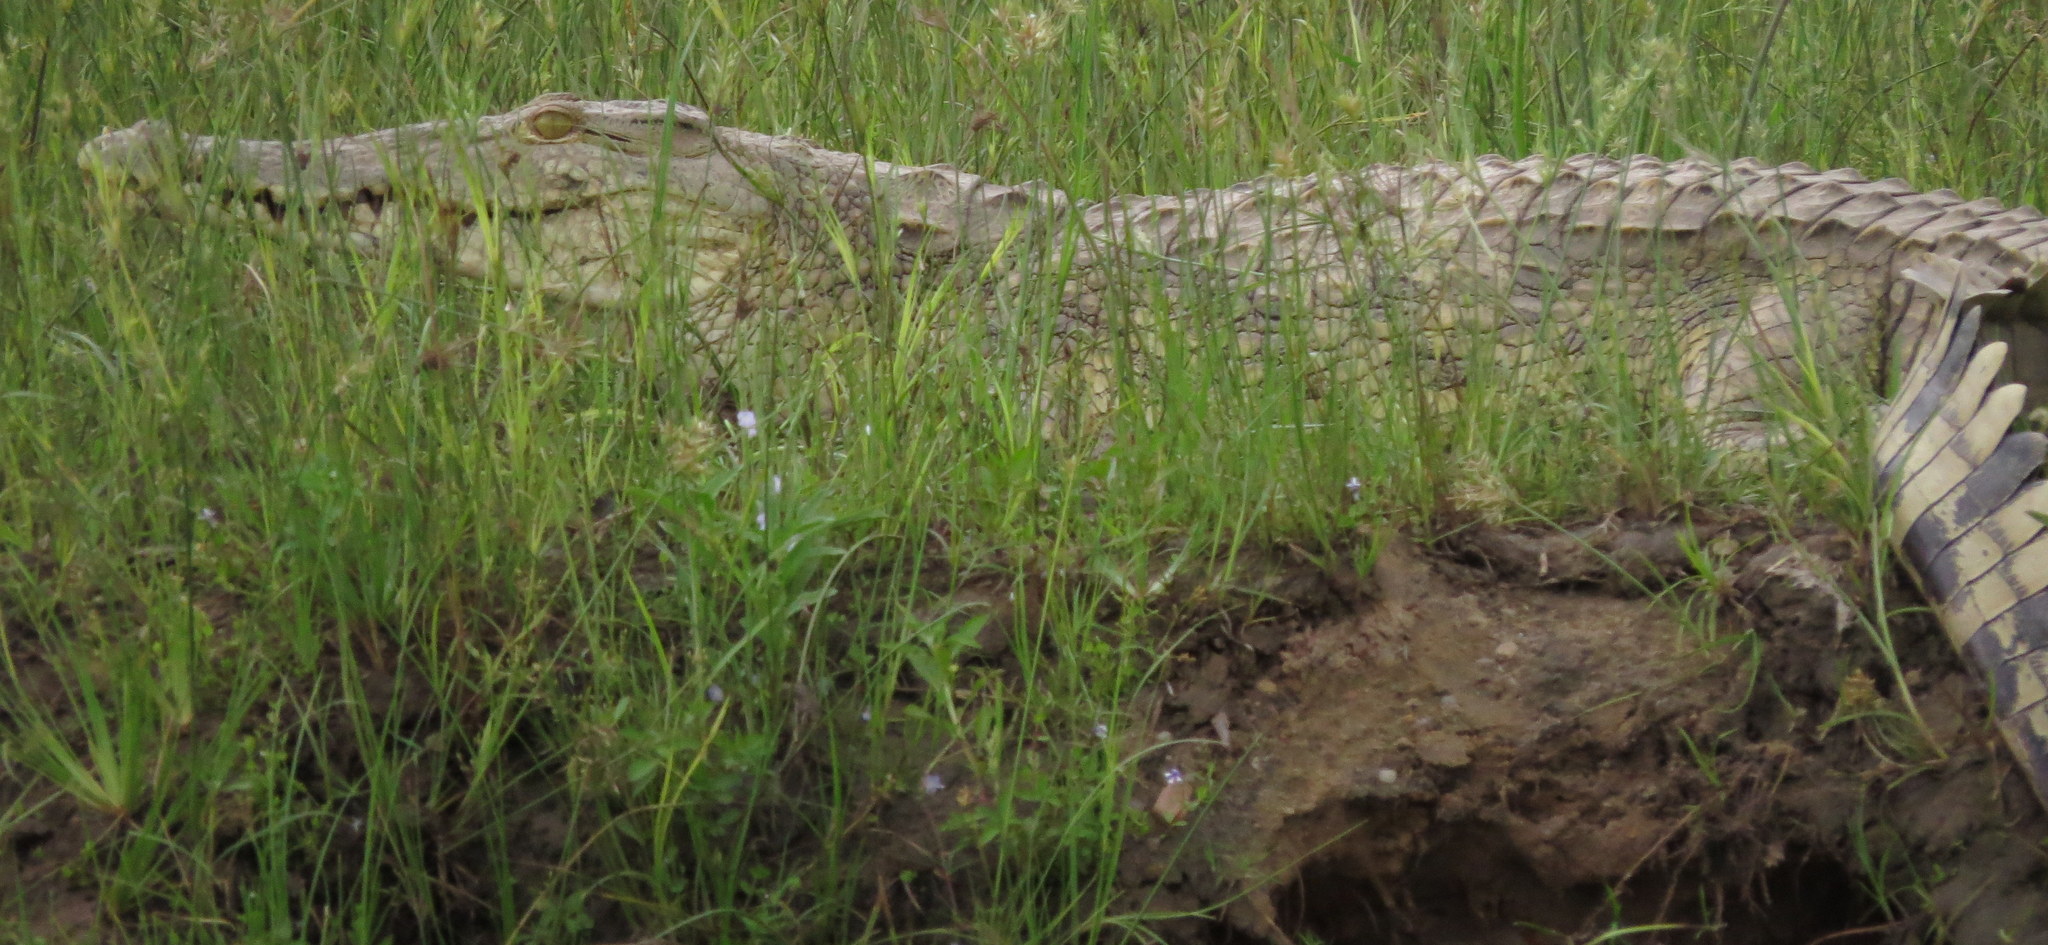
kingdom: Animalia
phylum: Chordata
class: Crocodylia
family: Crocodylidae
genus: Crocodylus
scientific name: Crocodylus niloticus
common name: Nile crocodile
